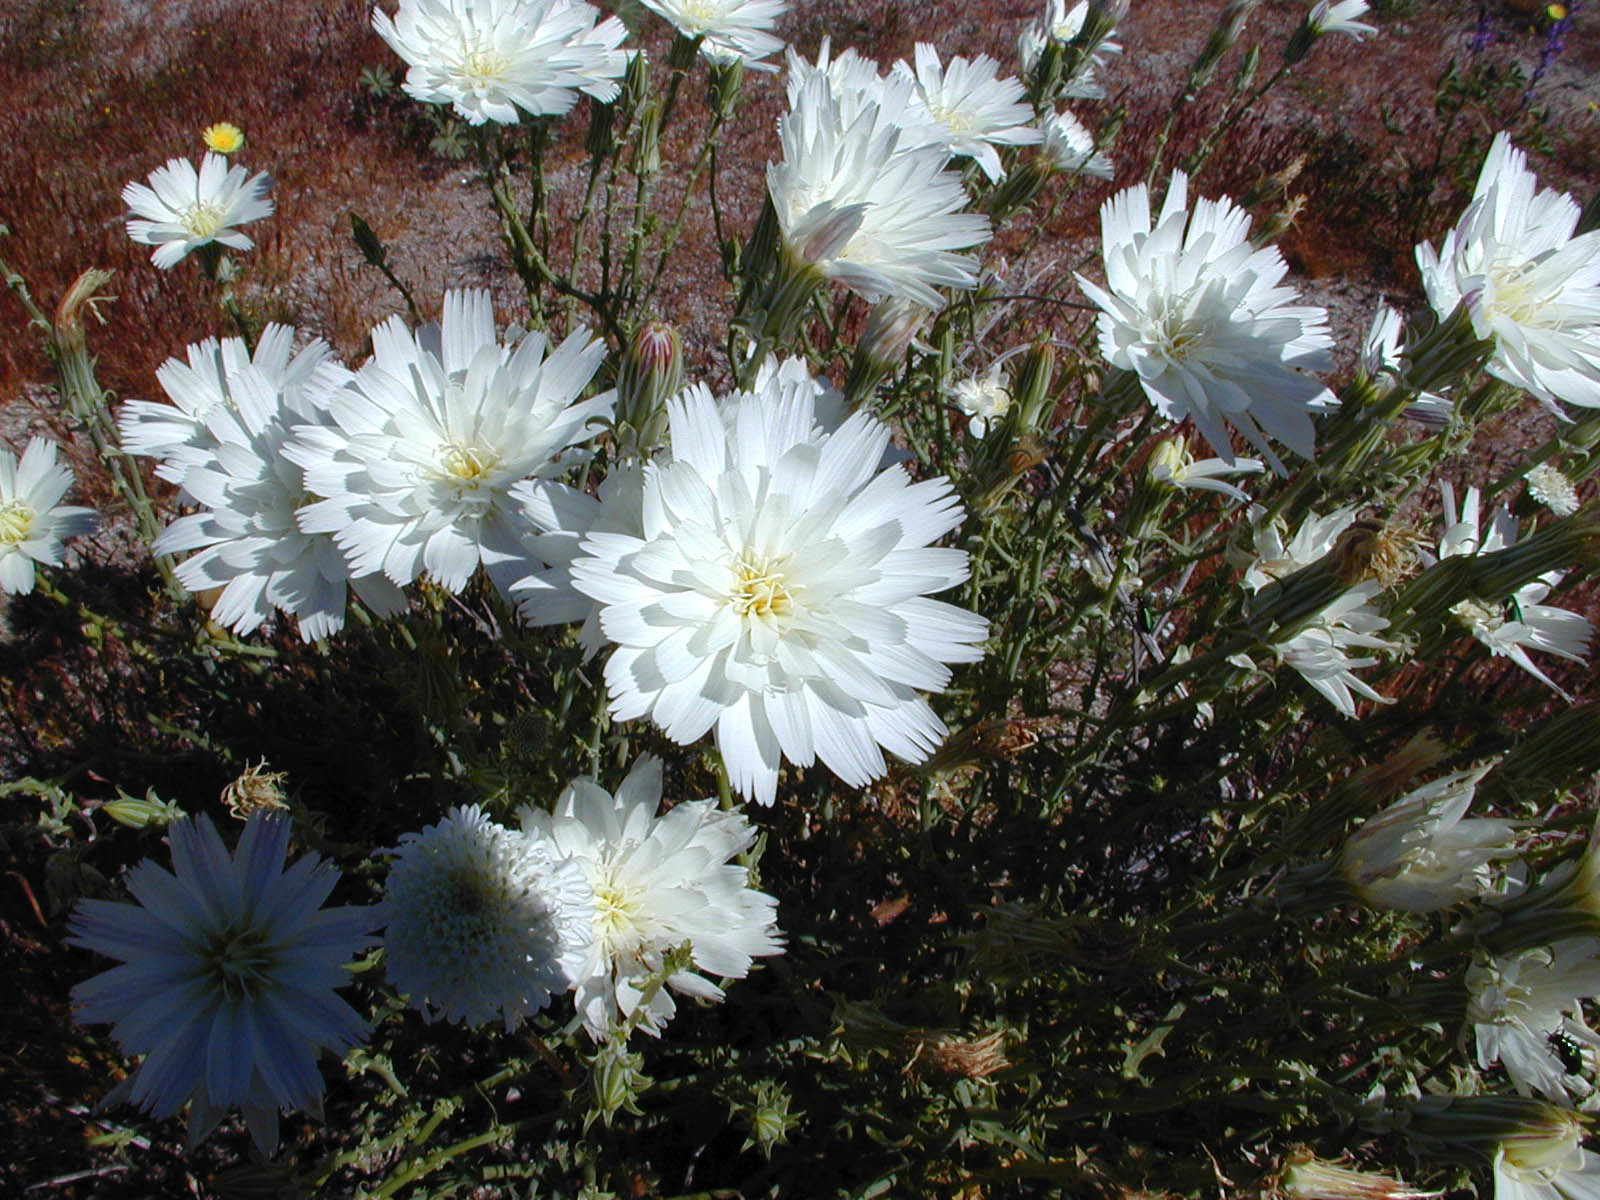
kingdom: Plantae
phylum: Tracheophyta
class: Magnoliopsida
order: Asterales
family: Asteraceae
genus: Rafinesquia
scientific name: Rafinesquia neomexicana
